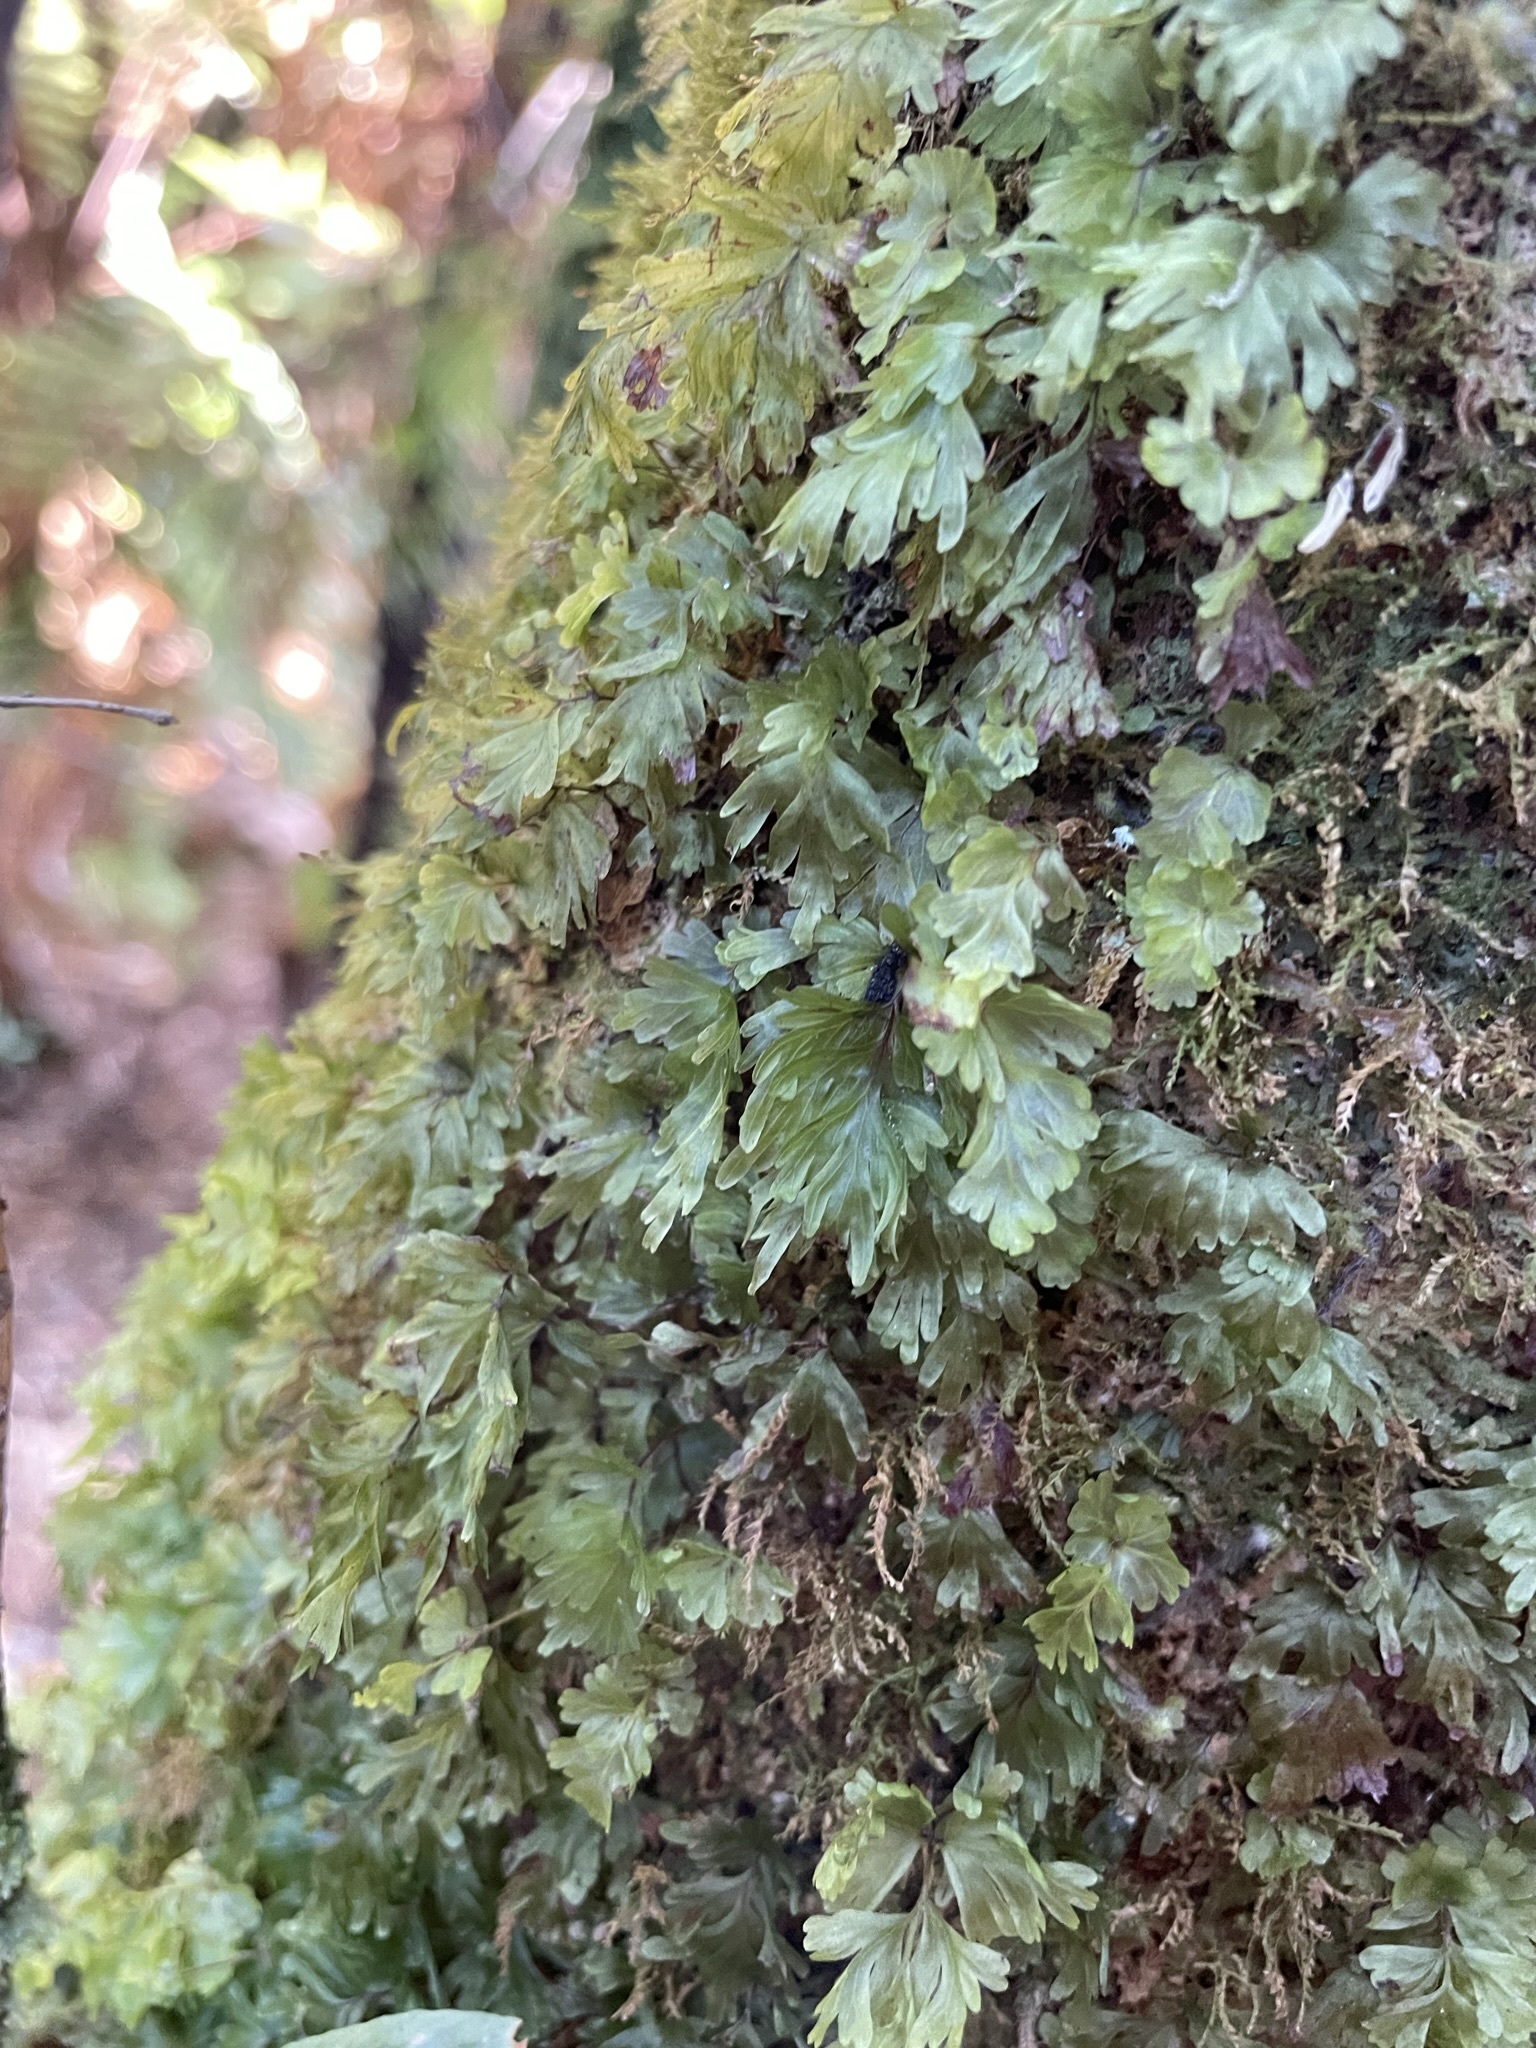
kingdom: Plantae
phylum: Tracheophyta
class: Polypodiopsida
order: Hymenophyllales
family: Hymenophyllaceae
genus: Hymenophyllum
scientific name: Hymenophyllum flabellatum
